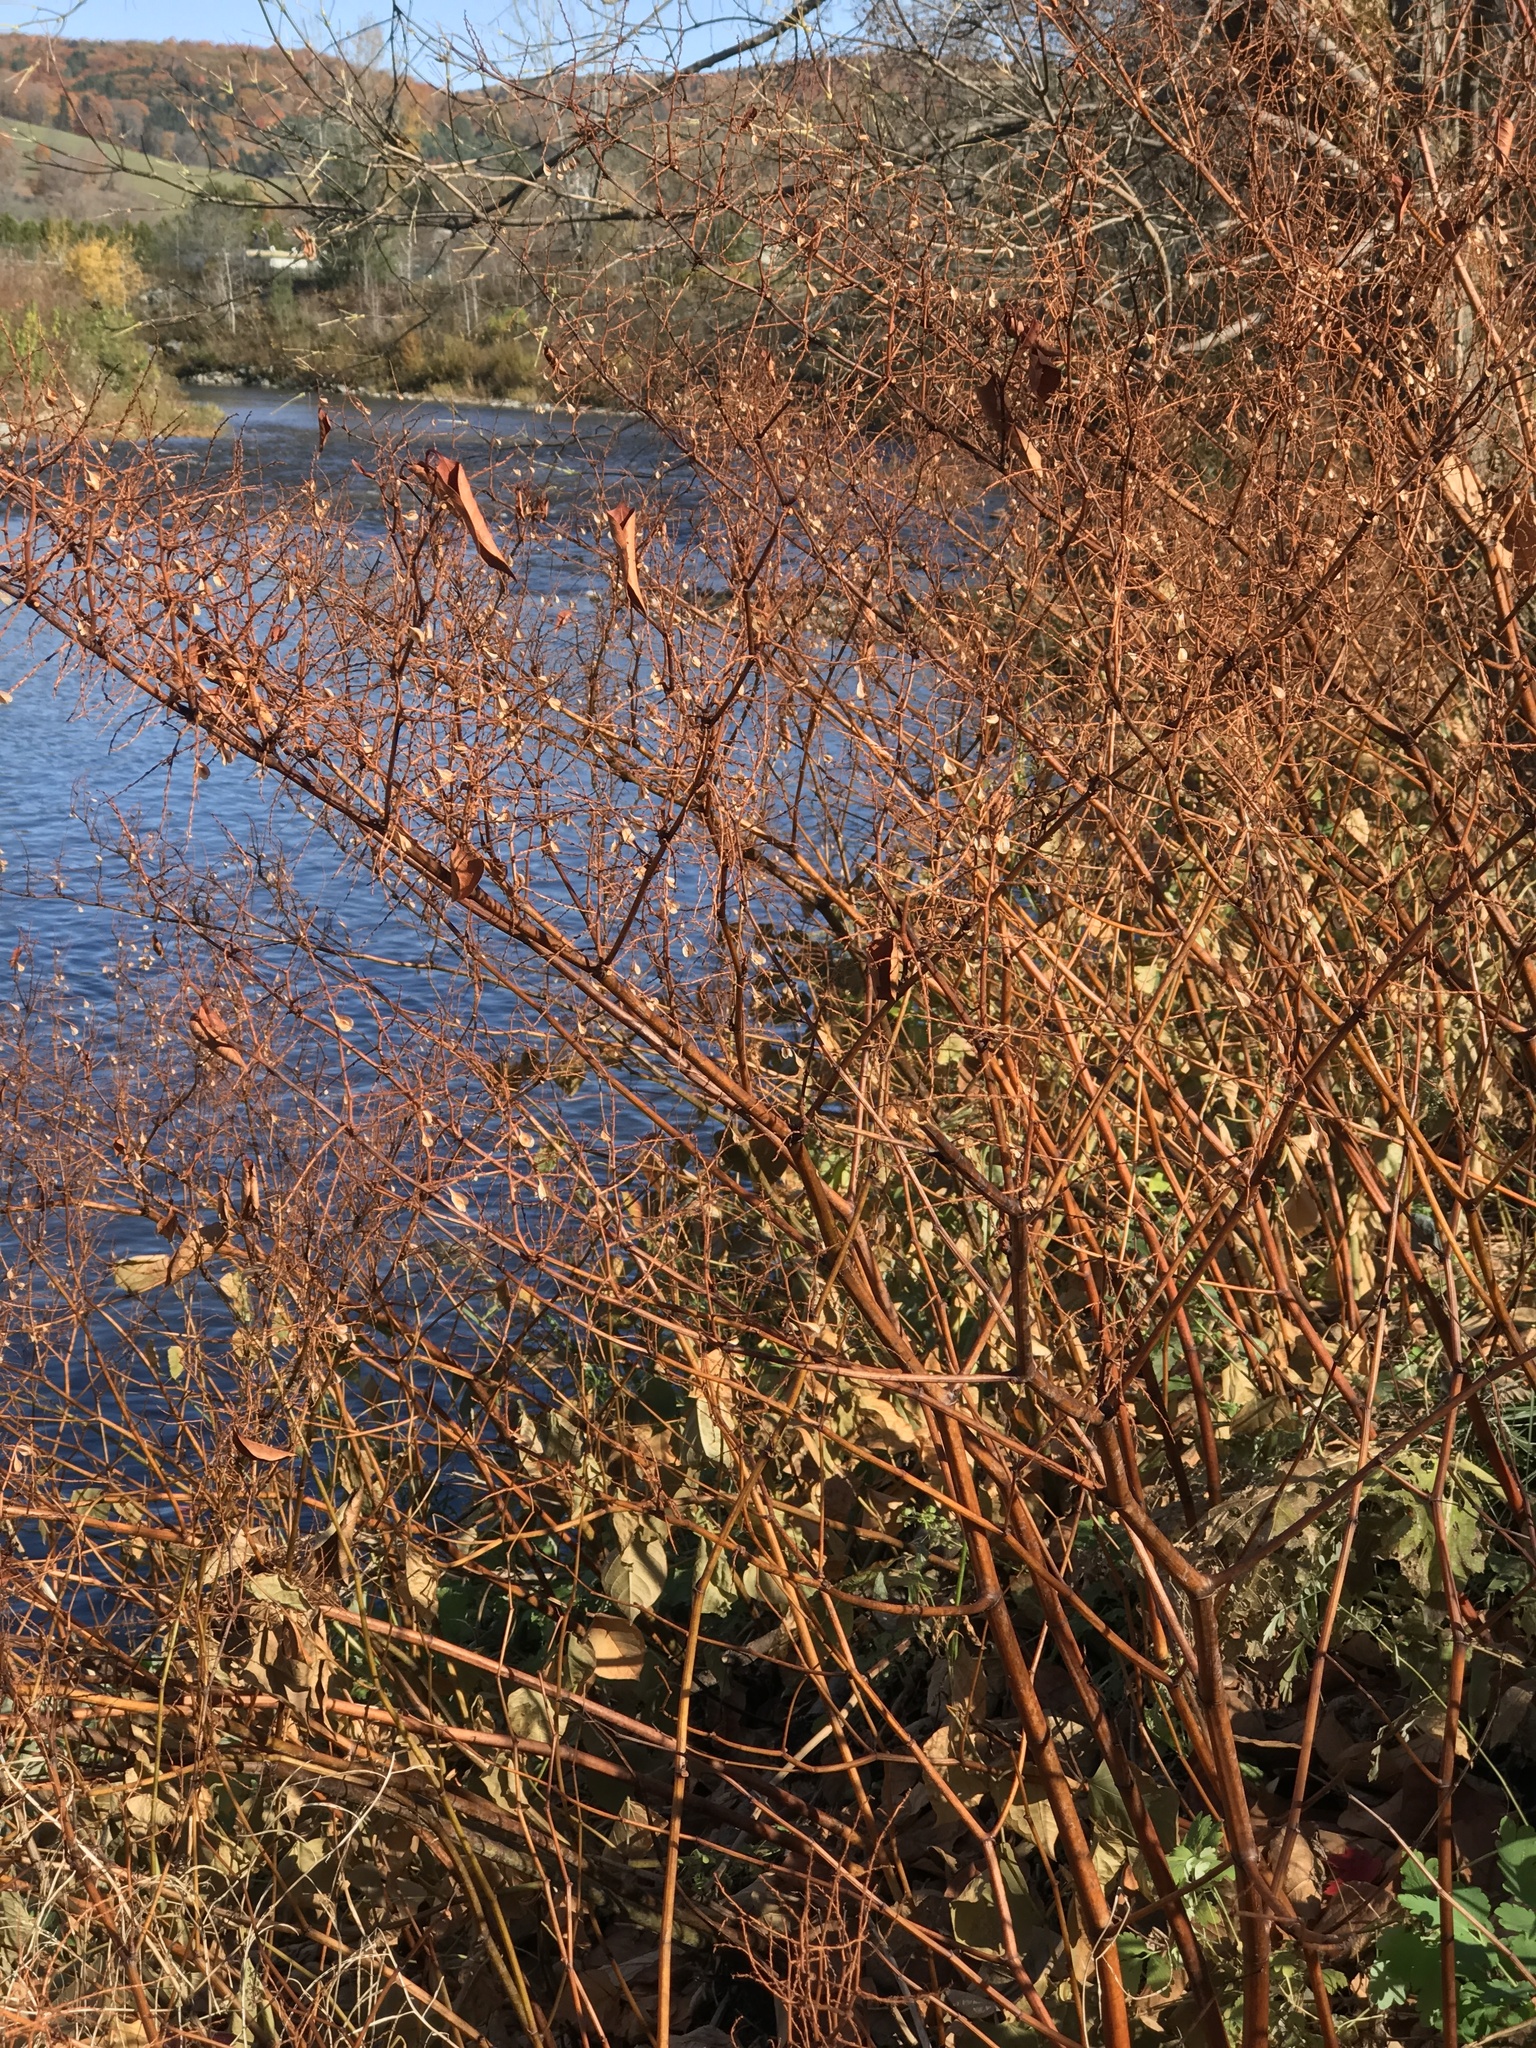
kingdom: Plantae
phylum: Tracheophyta
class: Magnoliopsida
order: Caryophyllales
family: Polygonaceae
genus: Reynoutria
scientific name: Reynoutria japonica
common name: Japanese knotweed
